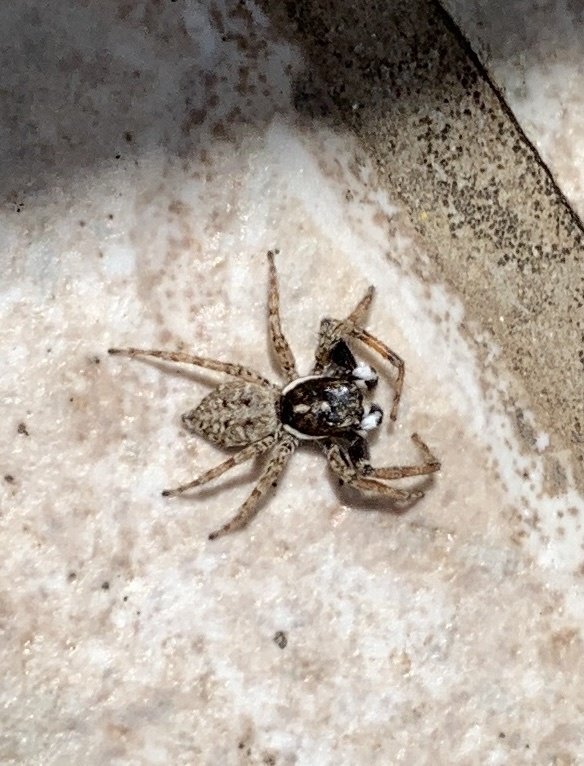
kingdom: Animalia
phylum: Arthropoda
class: Arachnida
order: Araneae
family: Salticidae
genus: Menemerus
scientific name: Menemerus semilimbatus
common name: Jumping spider
